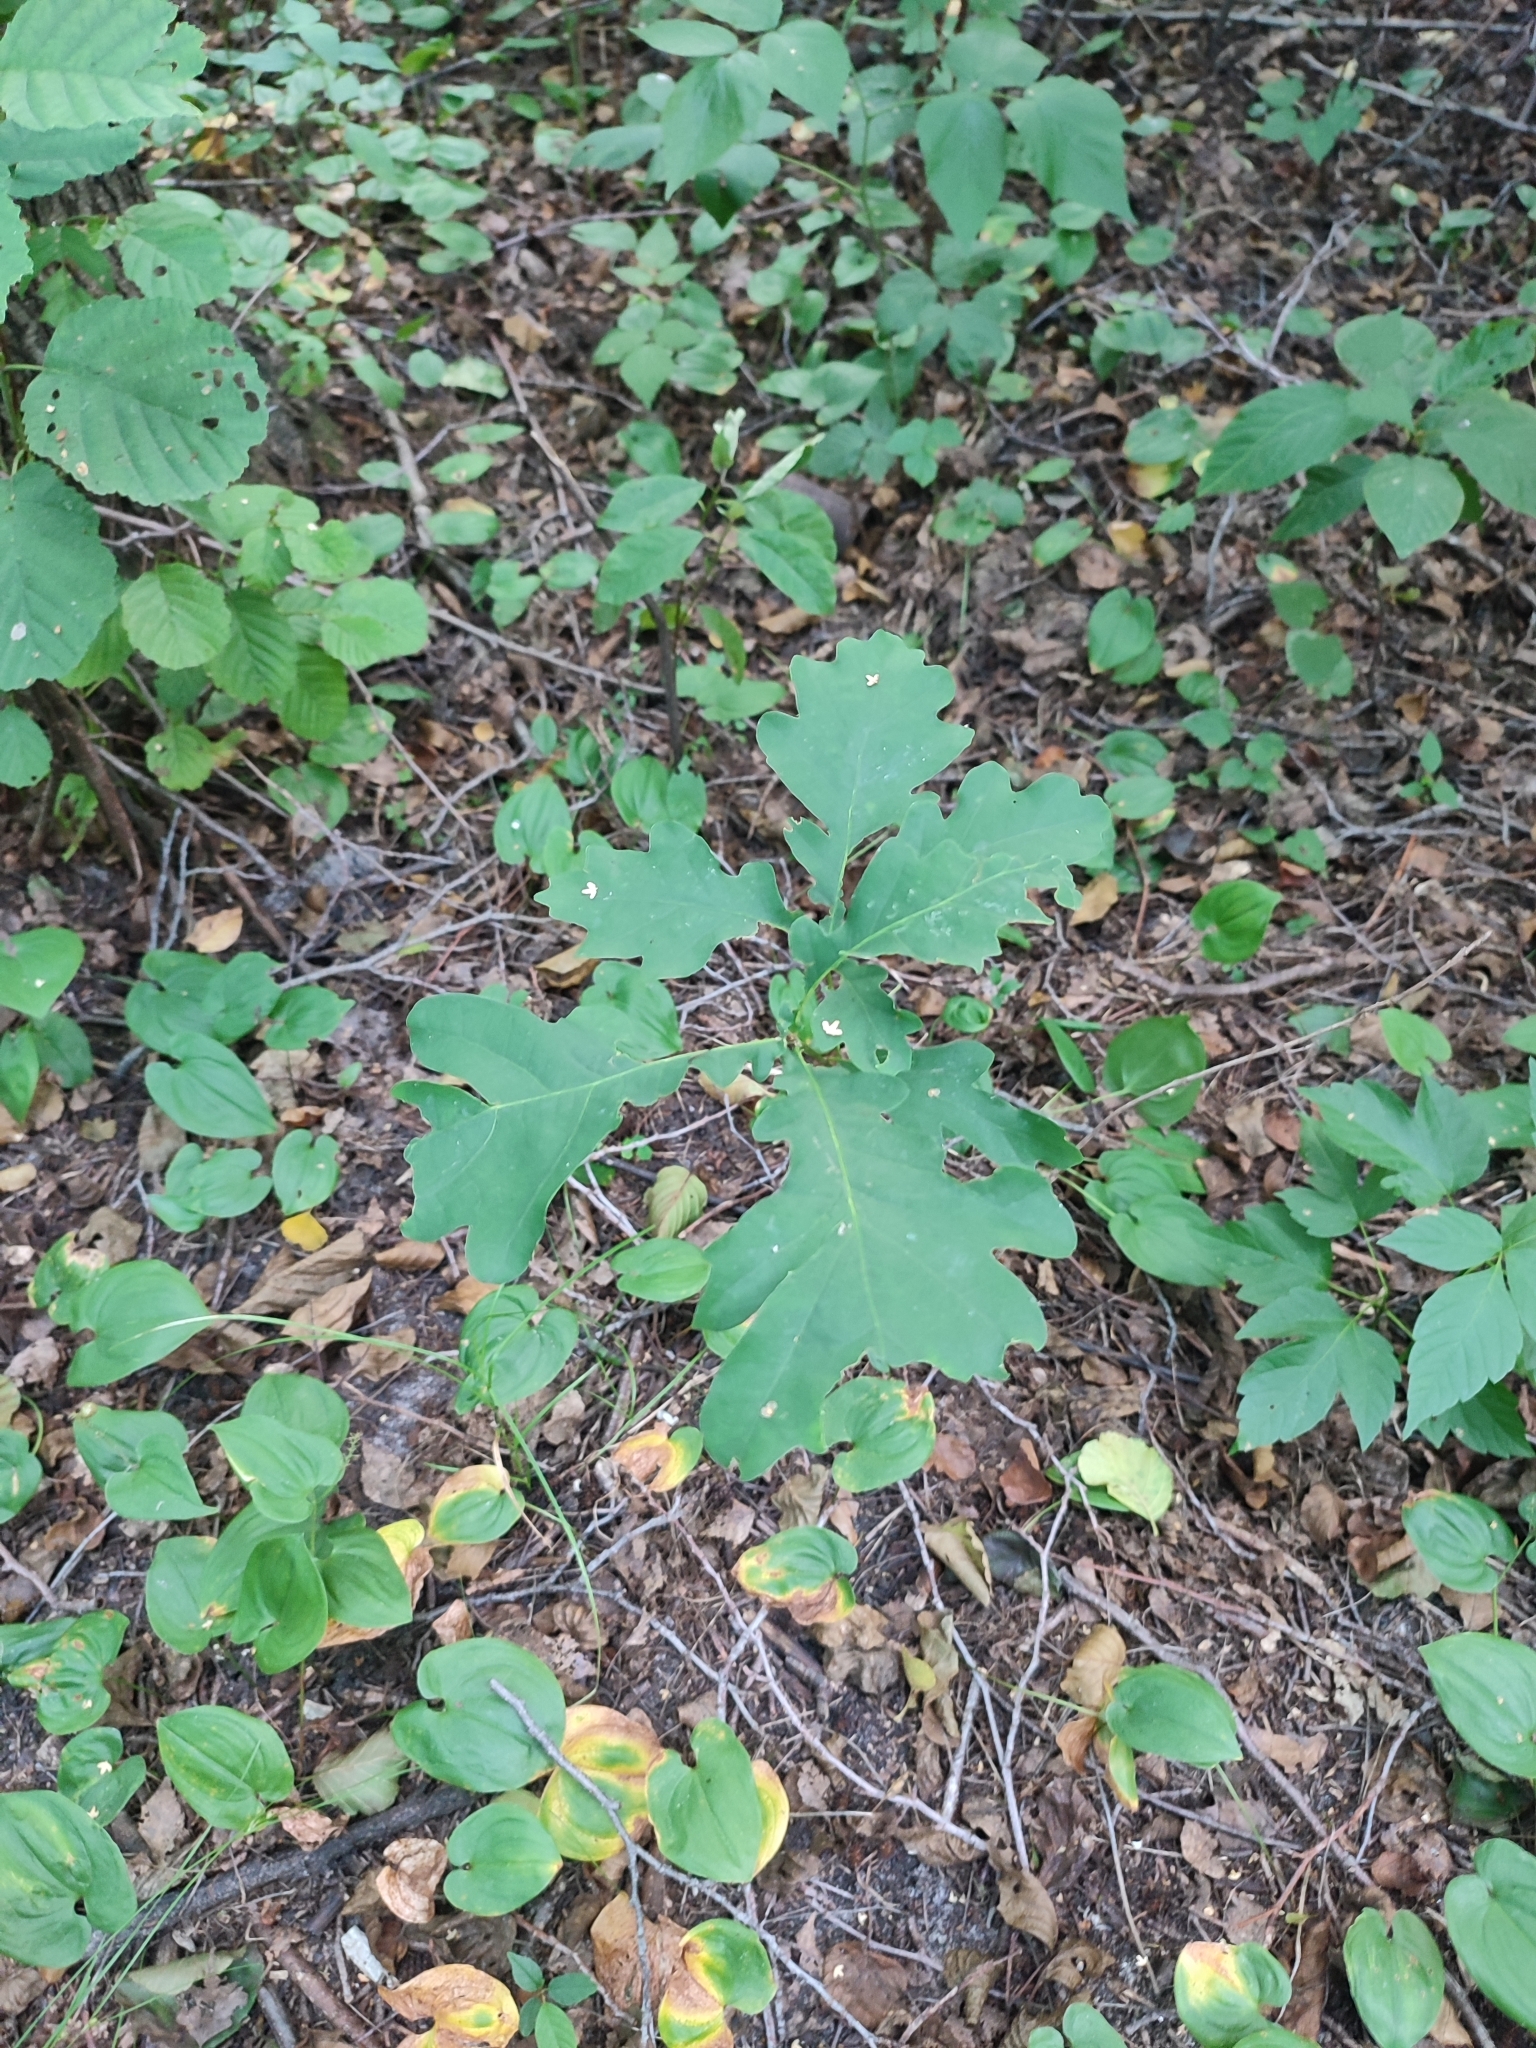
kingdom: Plantae
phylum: Tracheophyta
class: Magnoliopsida
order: Fagales
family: Fagaceae
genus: Quercus
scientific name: Quercus robur
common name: Pedunculate oak
